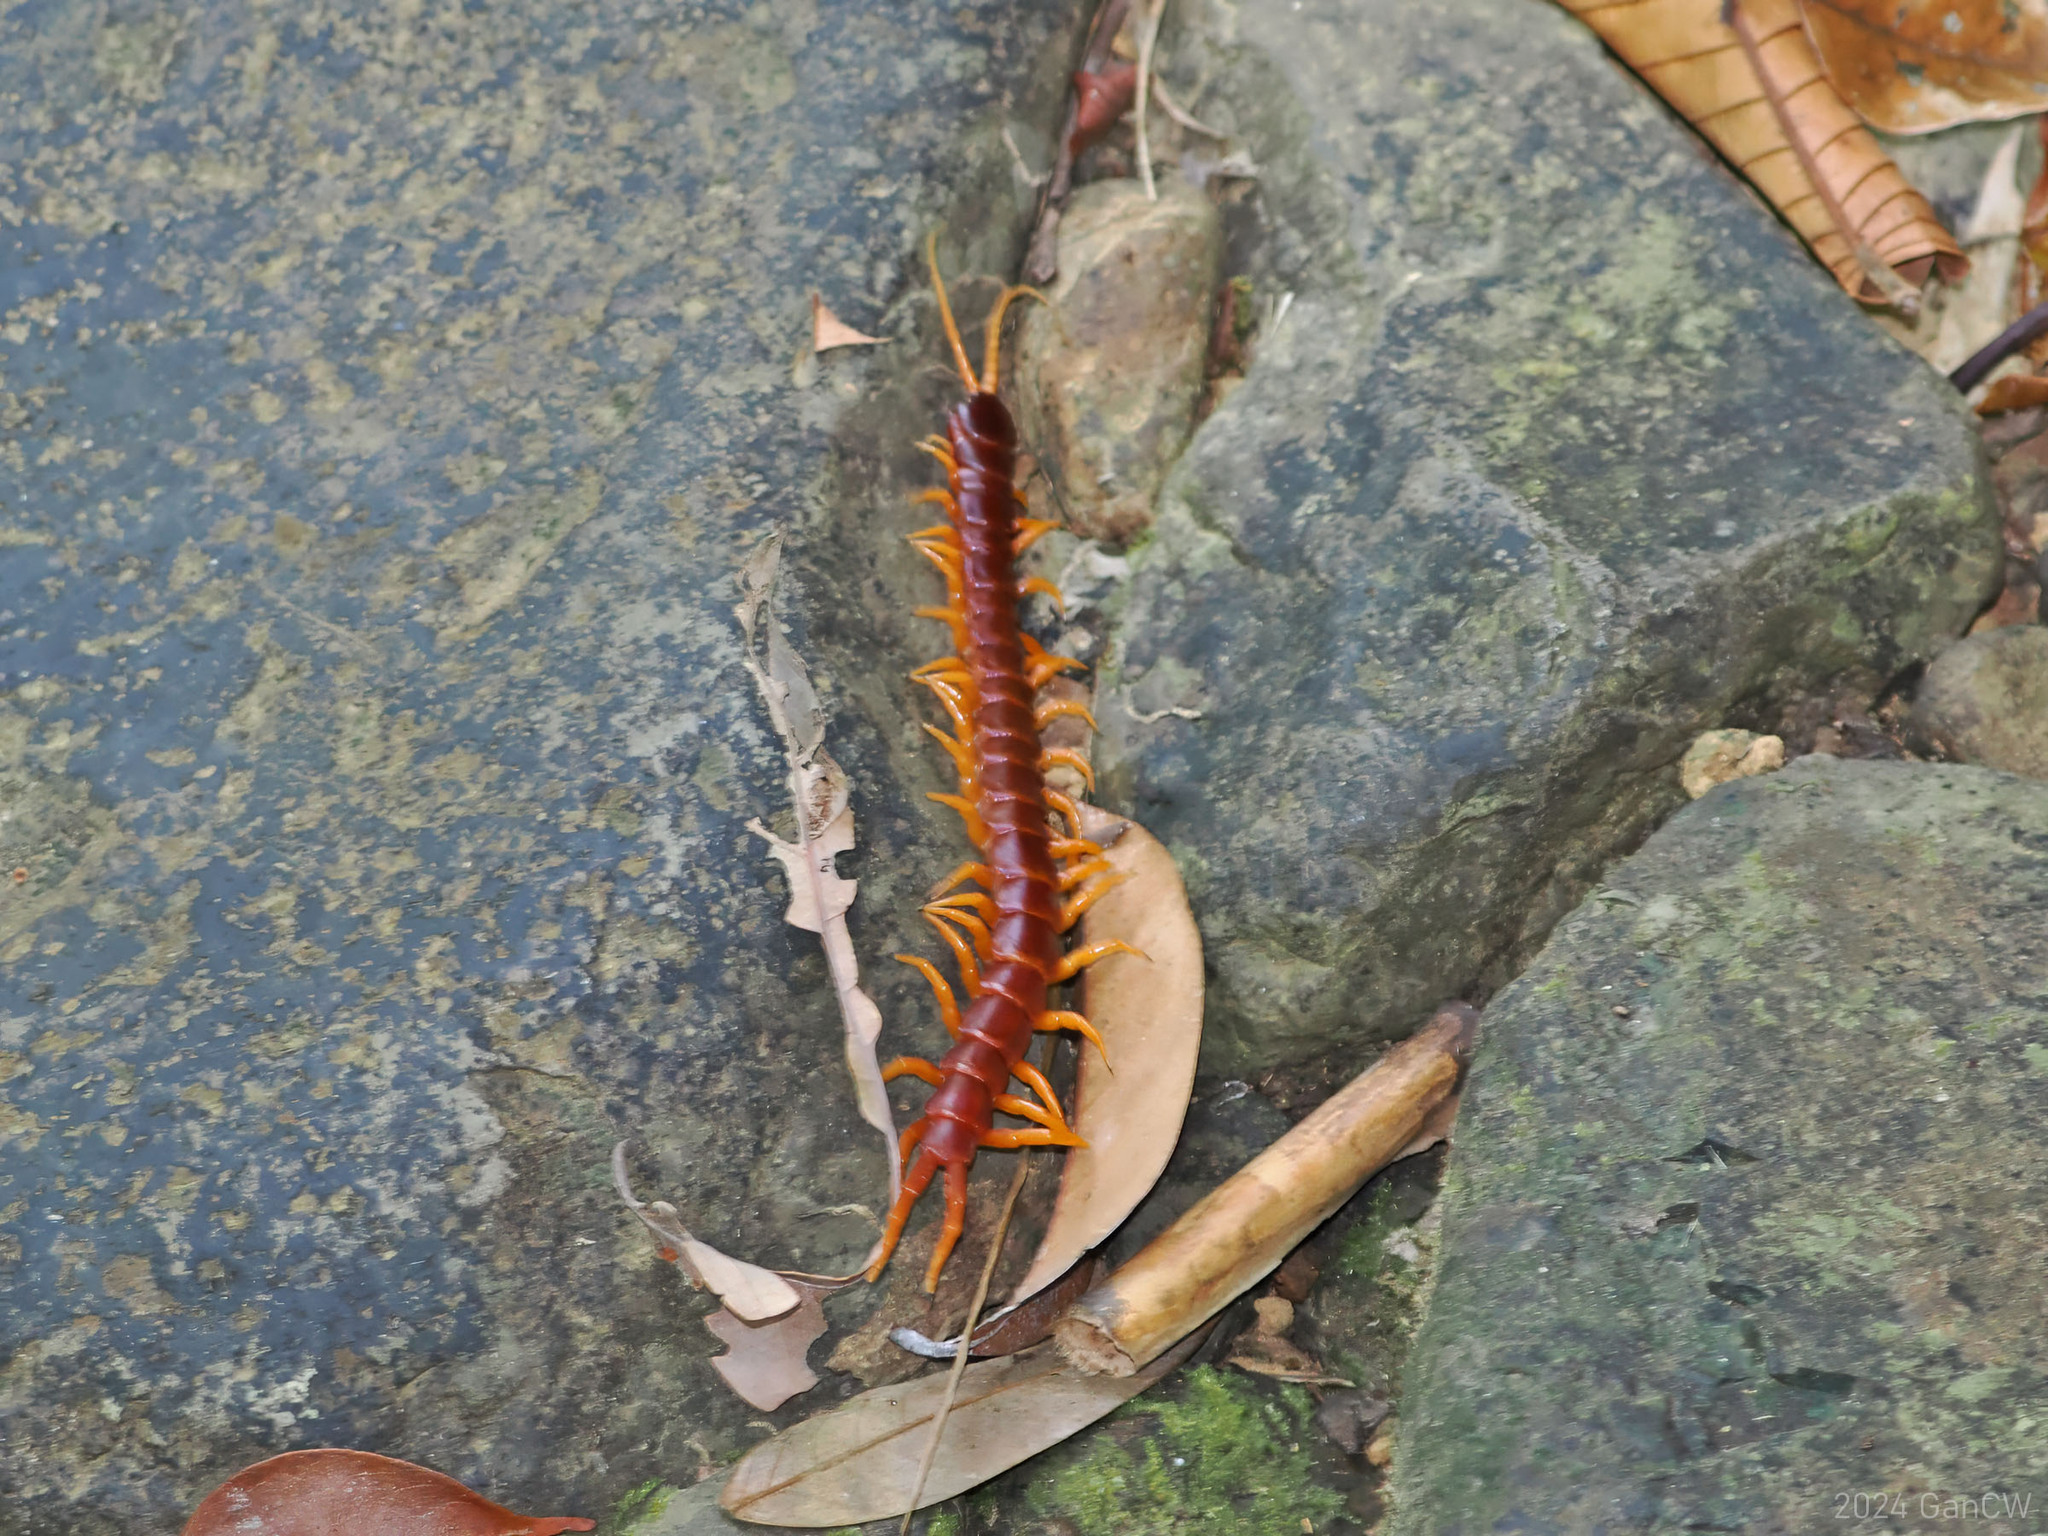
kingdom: Animalia
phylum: Arthropoda
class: Chilopoda
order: Scolopendromorpha
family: Scolopendridae
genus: Scolopendra
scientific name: Scolopendra spinosissima
